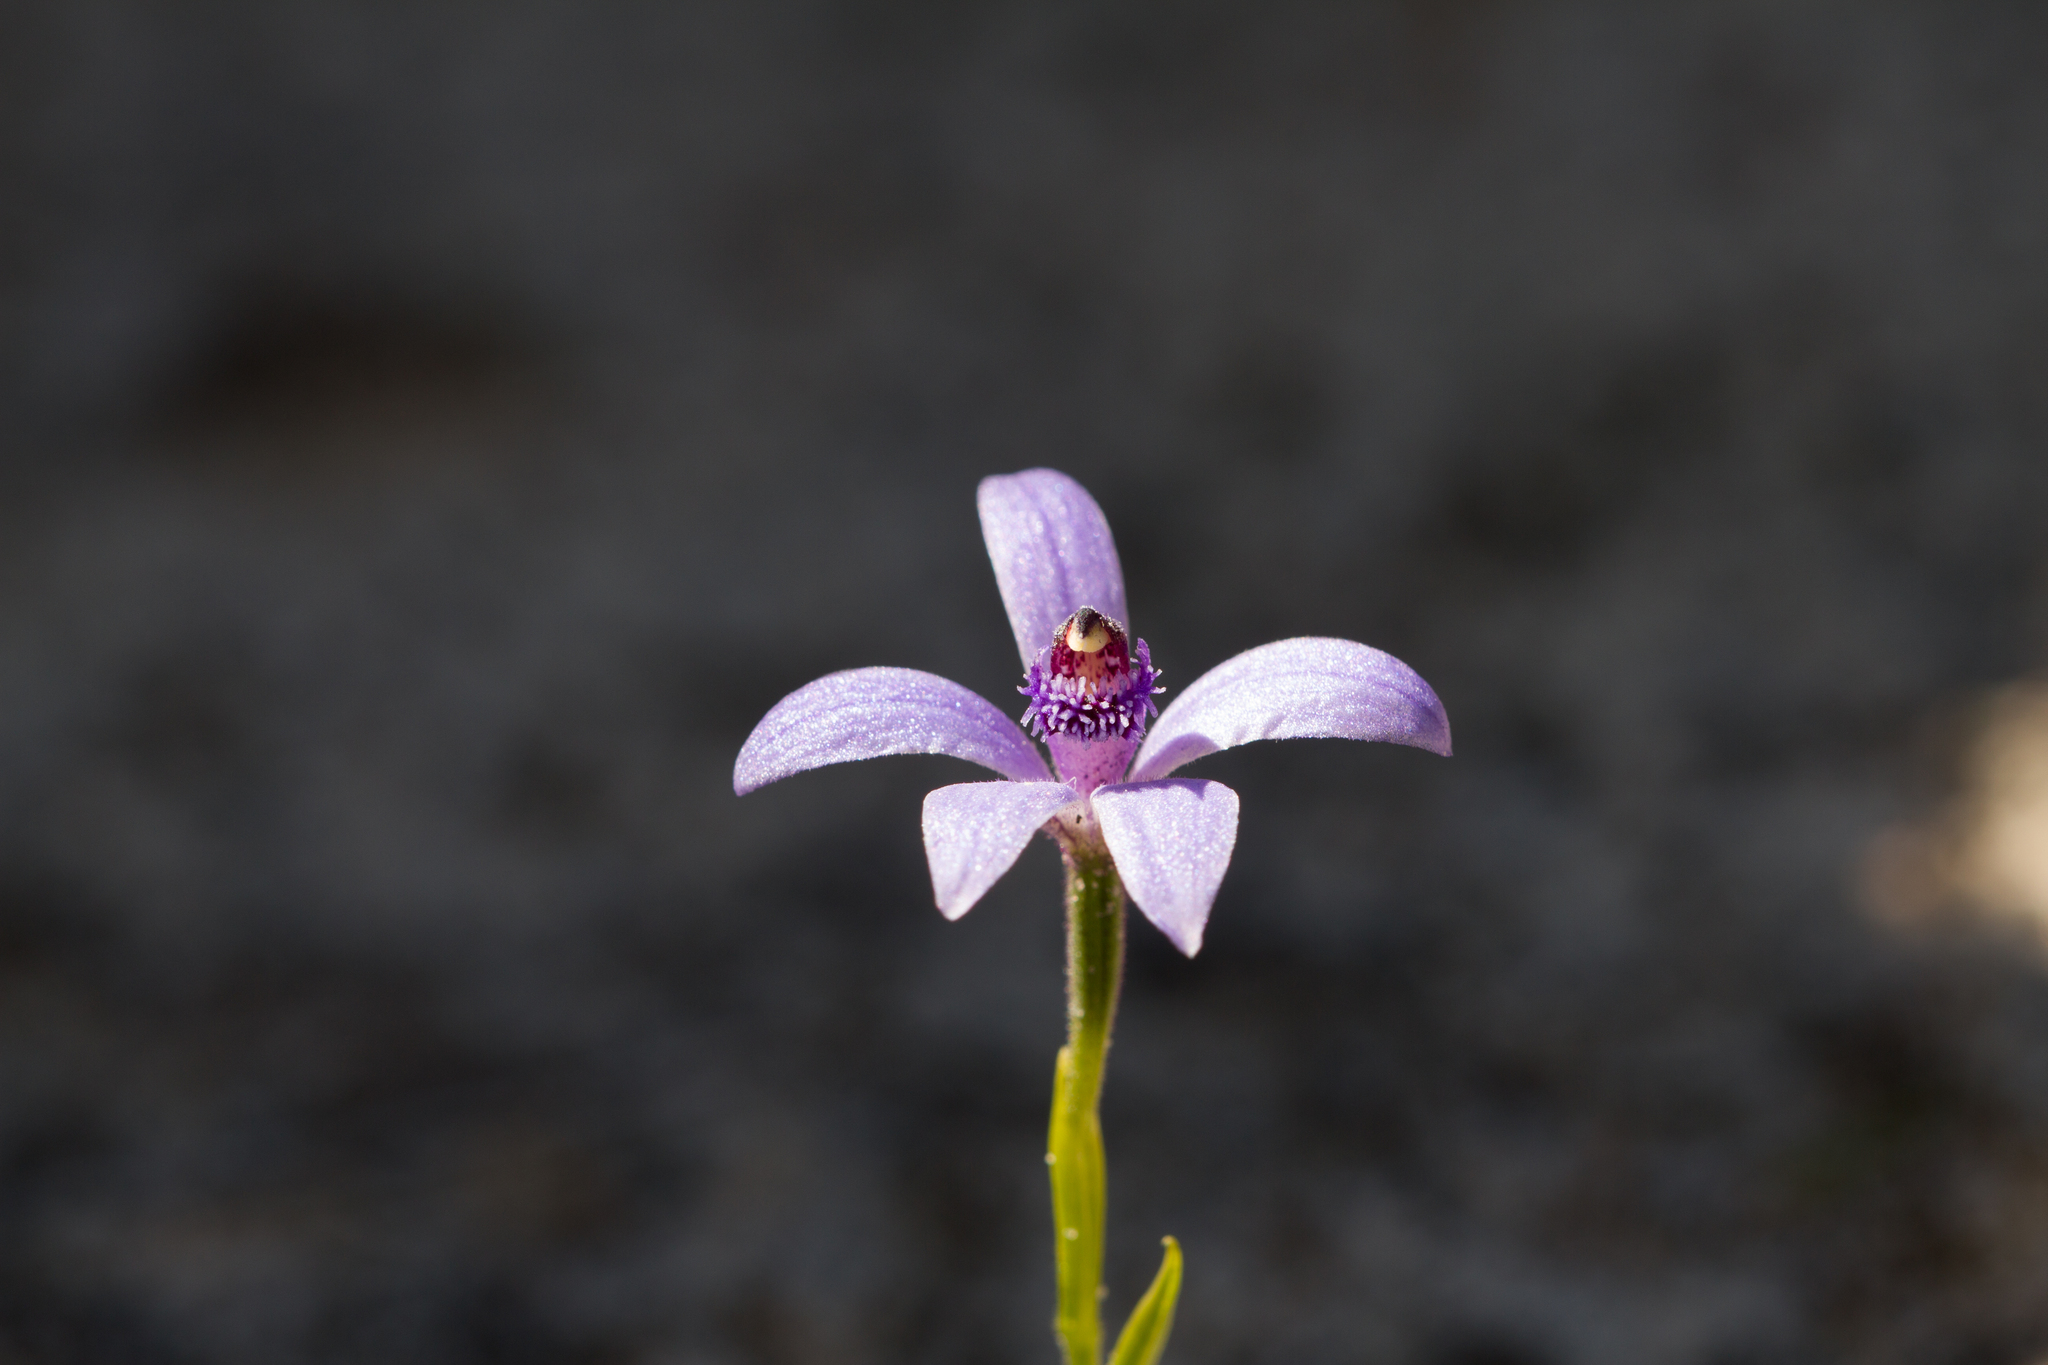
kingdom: Plantae
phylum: Tracheophyta
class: Liliopsida
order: Asparagales
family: Orchidaceae
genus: Pheladenia
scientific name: Pheladenia deformis
